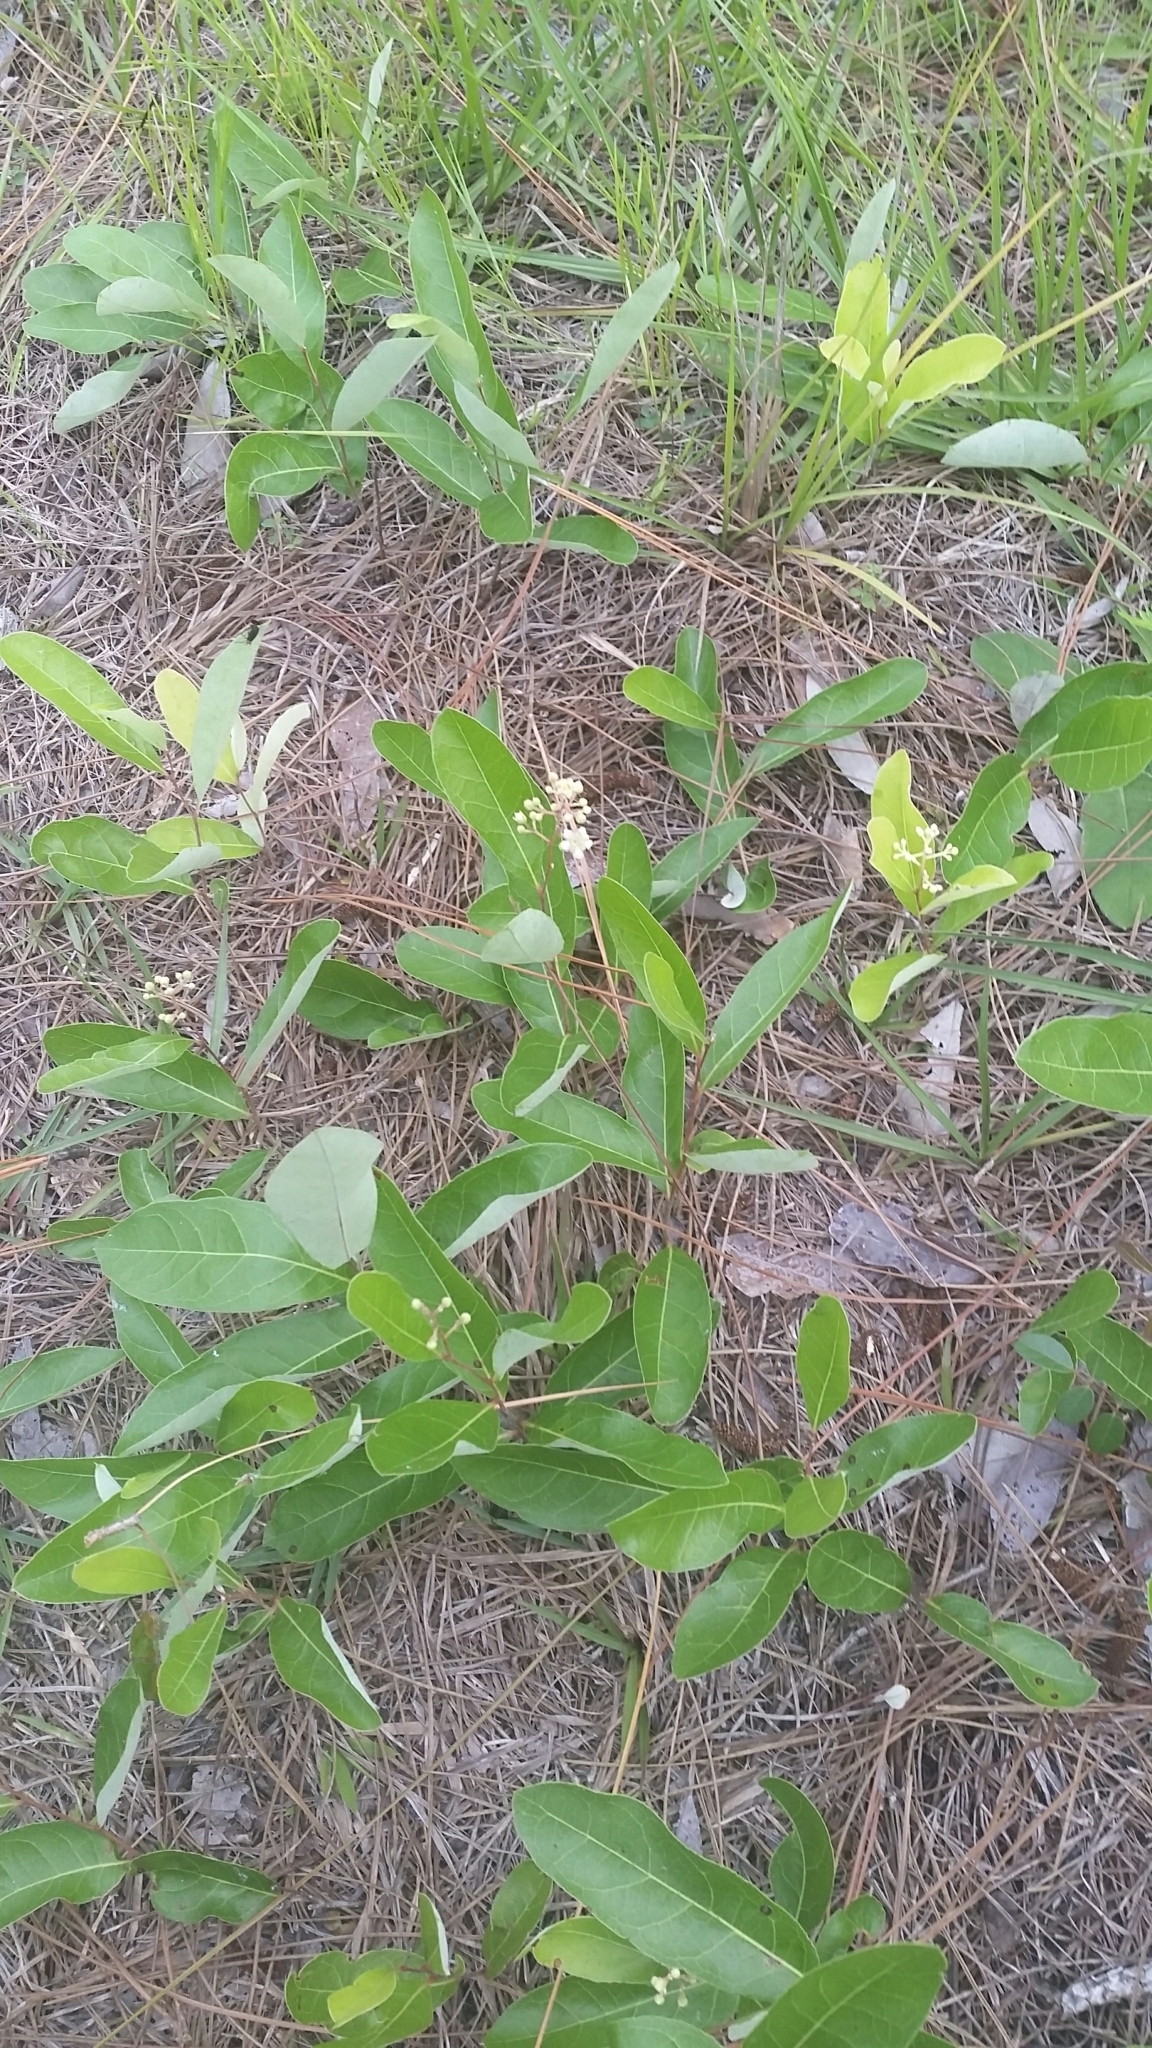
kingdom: Plantae
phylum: Tracheophyta
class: Magnoliopsida
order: Malpighiales
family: Chrysobalanaceae
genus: Geobalanus
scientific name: Geobalanus oblongifolius
